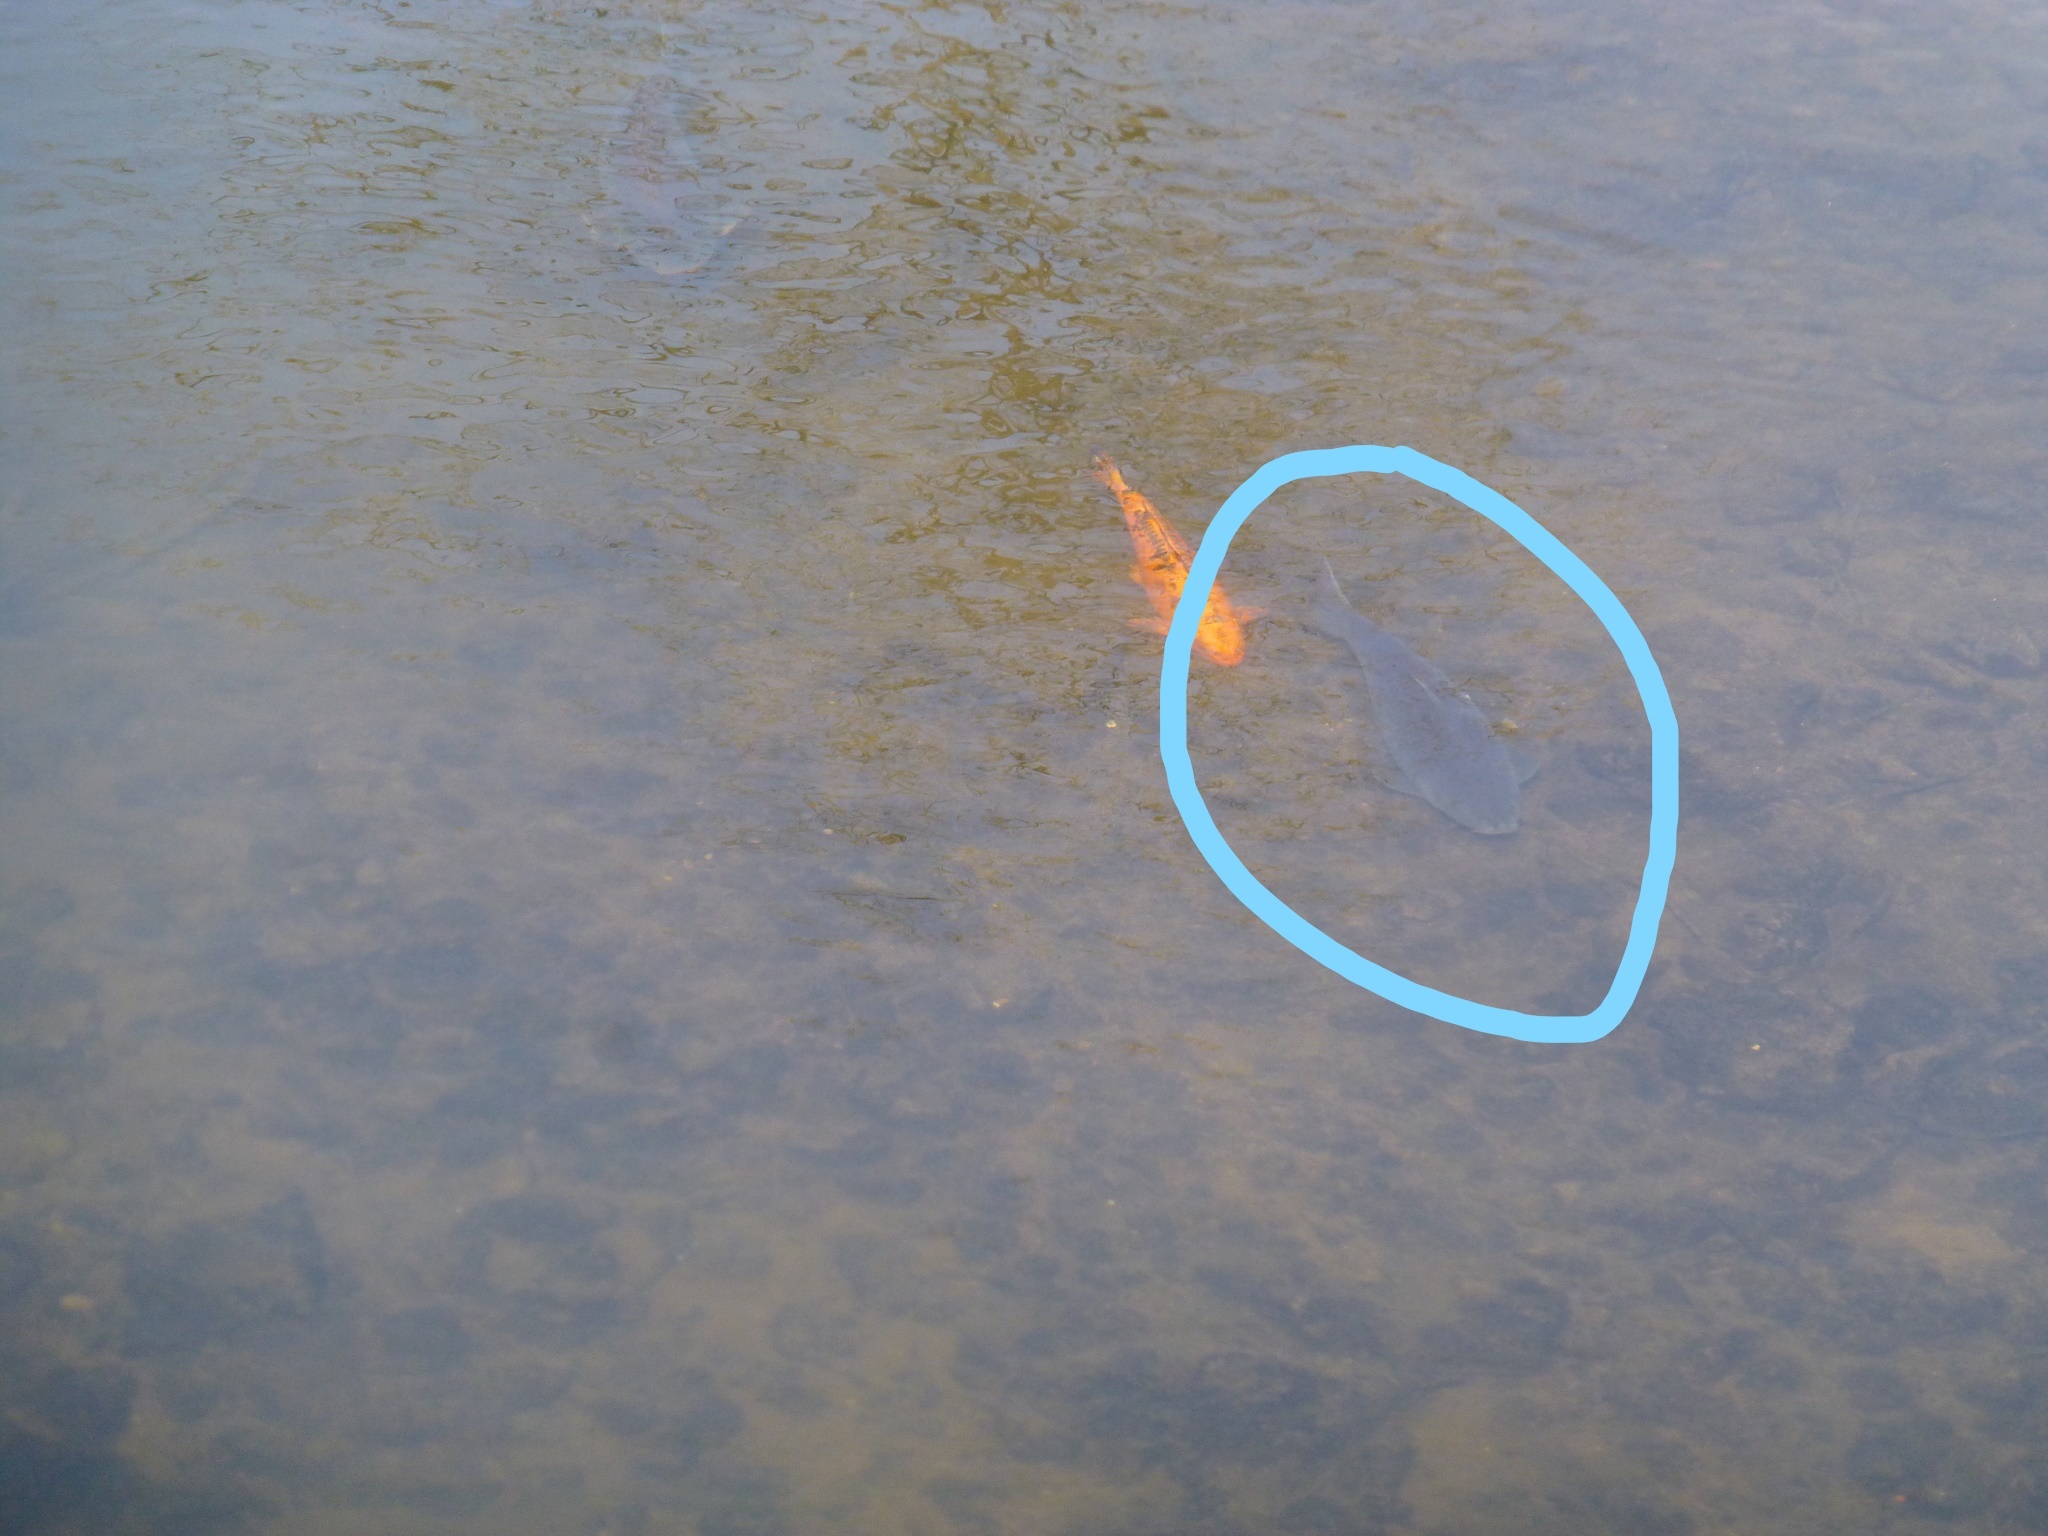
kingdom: Animalia
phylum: Chordata
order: Cypriniformes
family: Cyprinidae
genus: Cyprinus
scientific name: Cyprinus carpio
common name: Common carp
